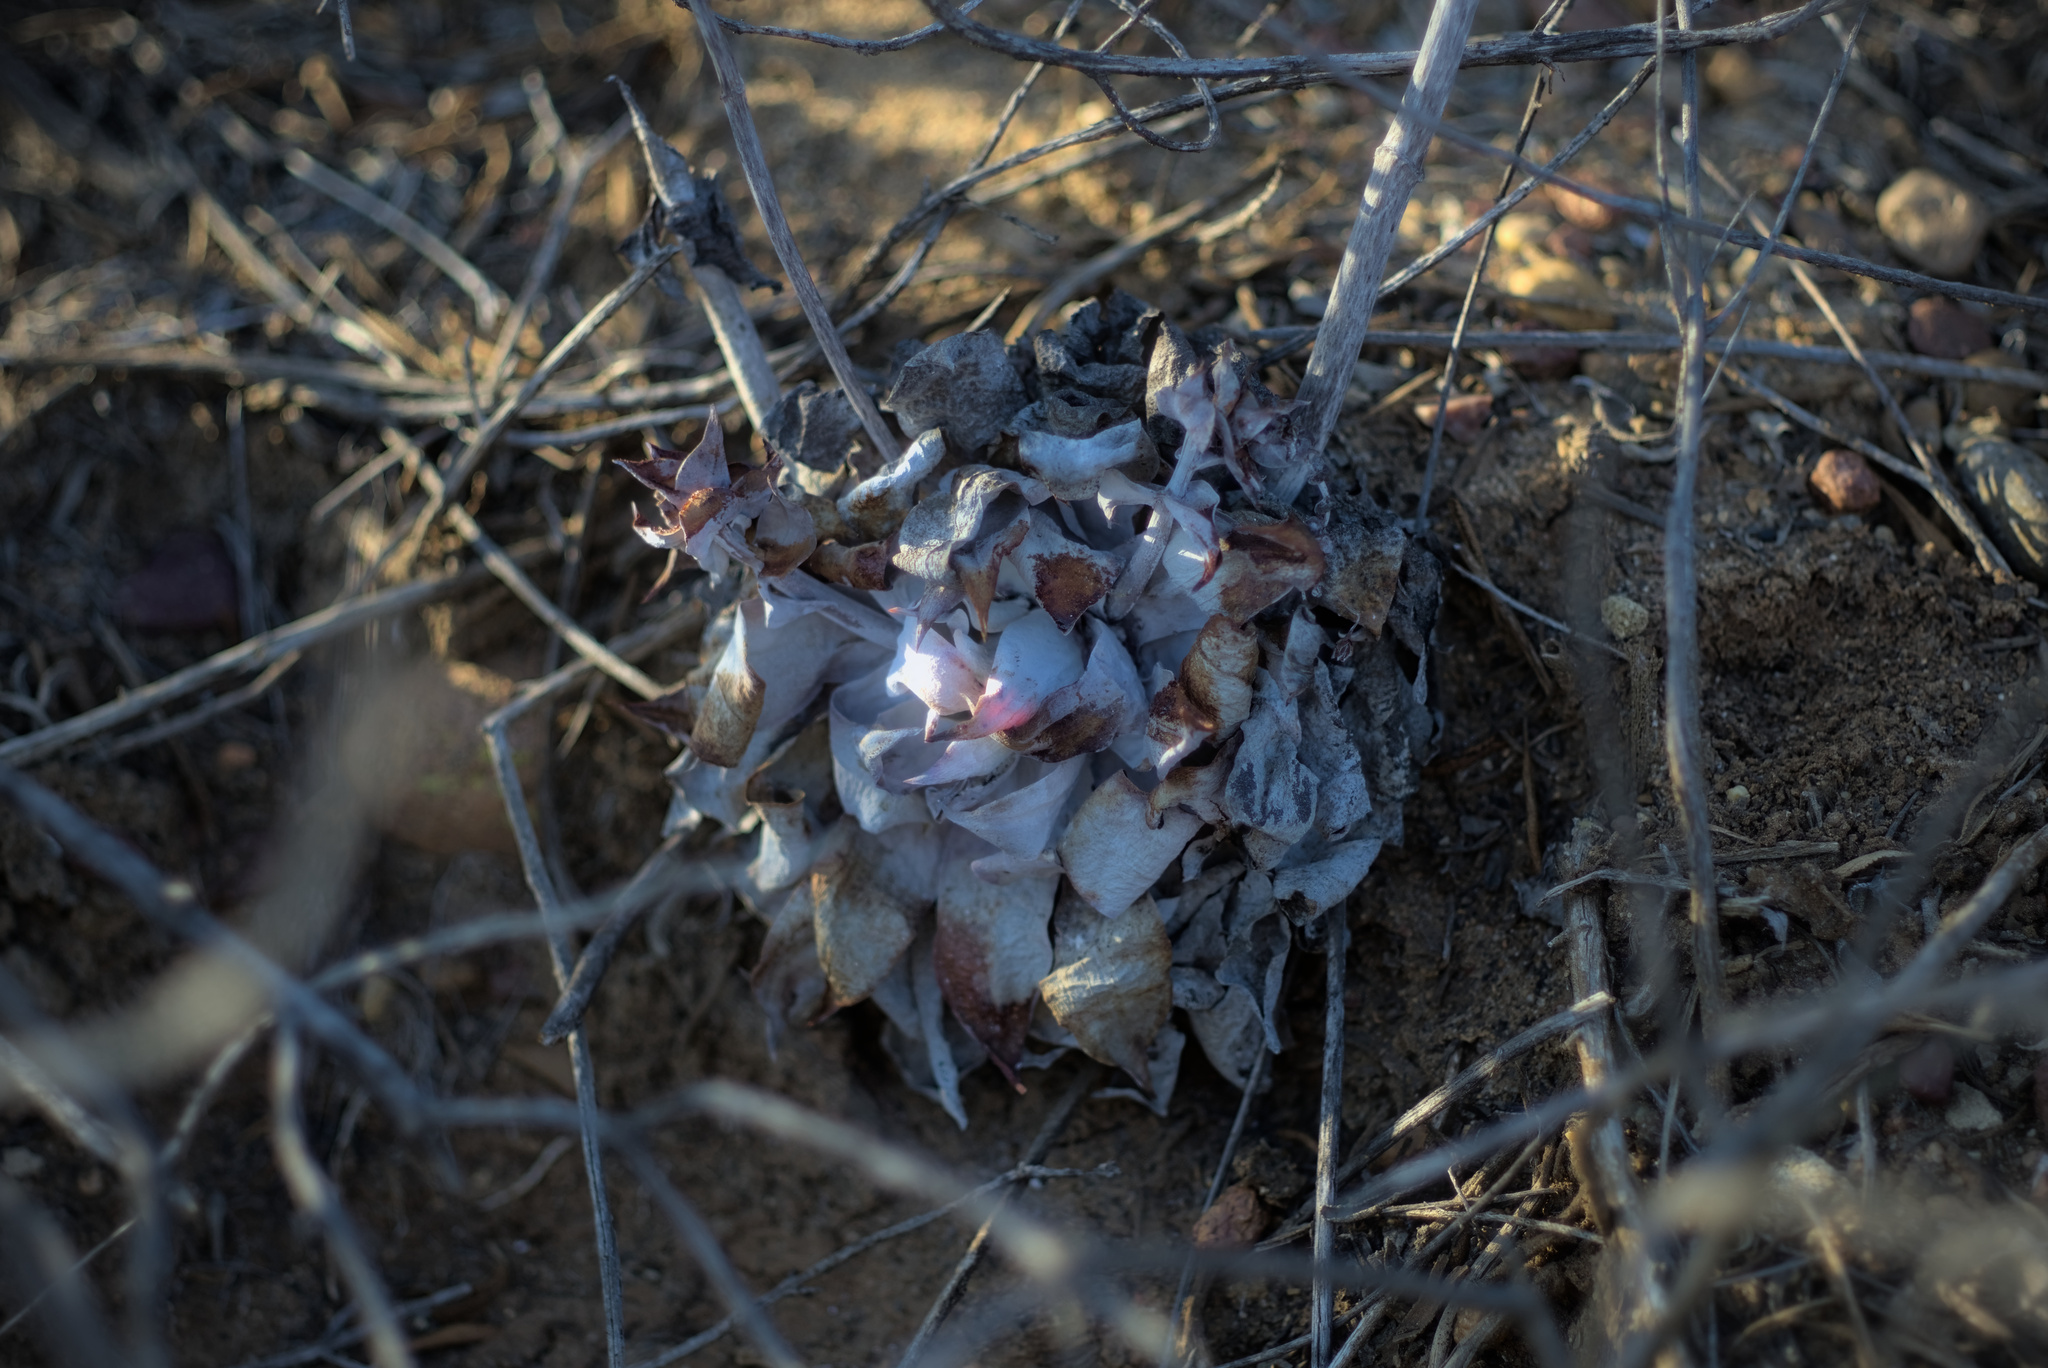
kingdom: Plantae
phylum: Tracheophyta
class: Magnoliopsida
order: Saxifragales
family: Crassulaceae
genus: Dudleya
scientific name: Dudleya pulverulenta
